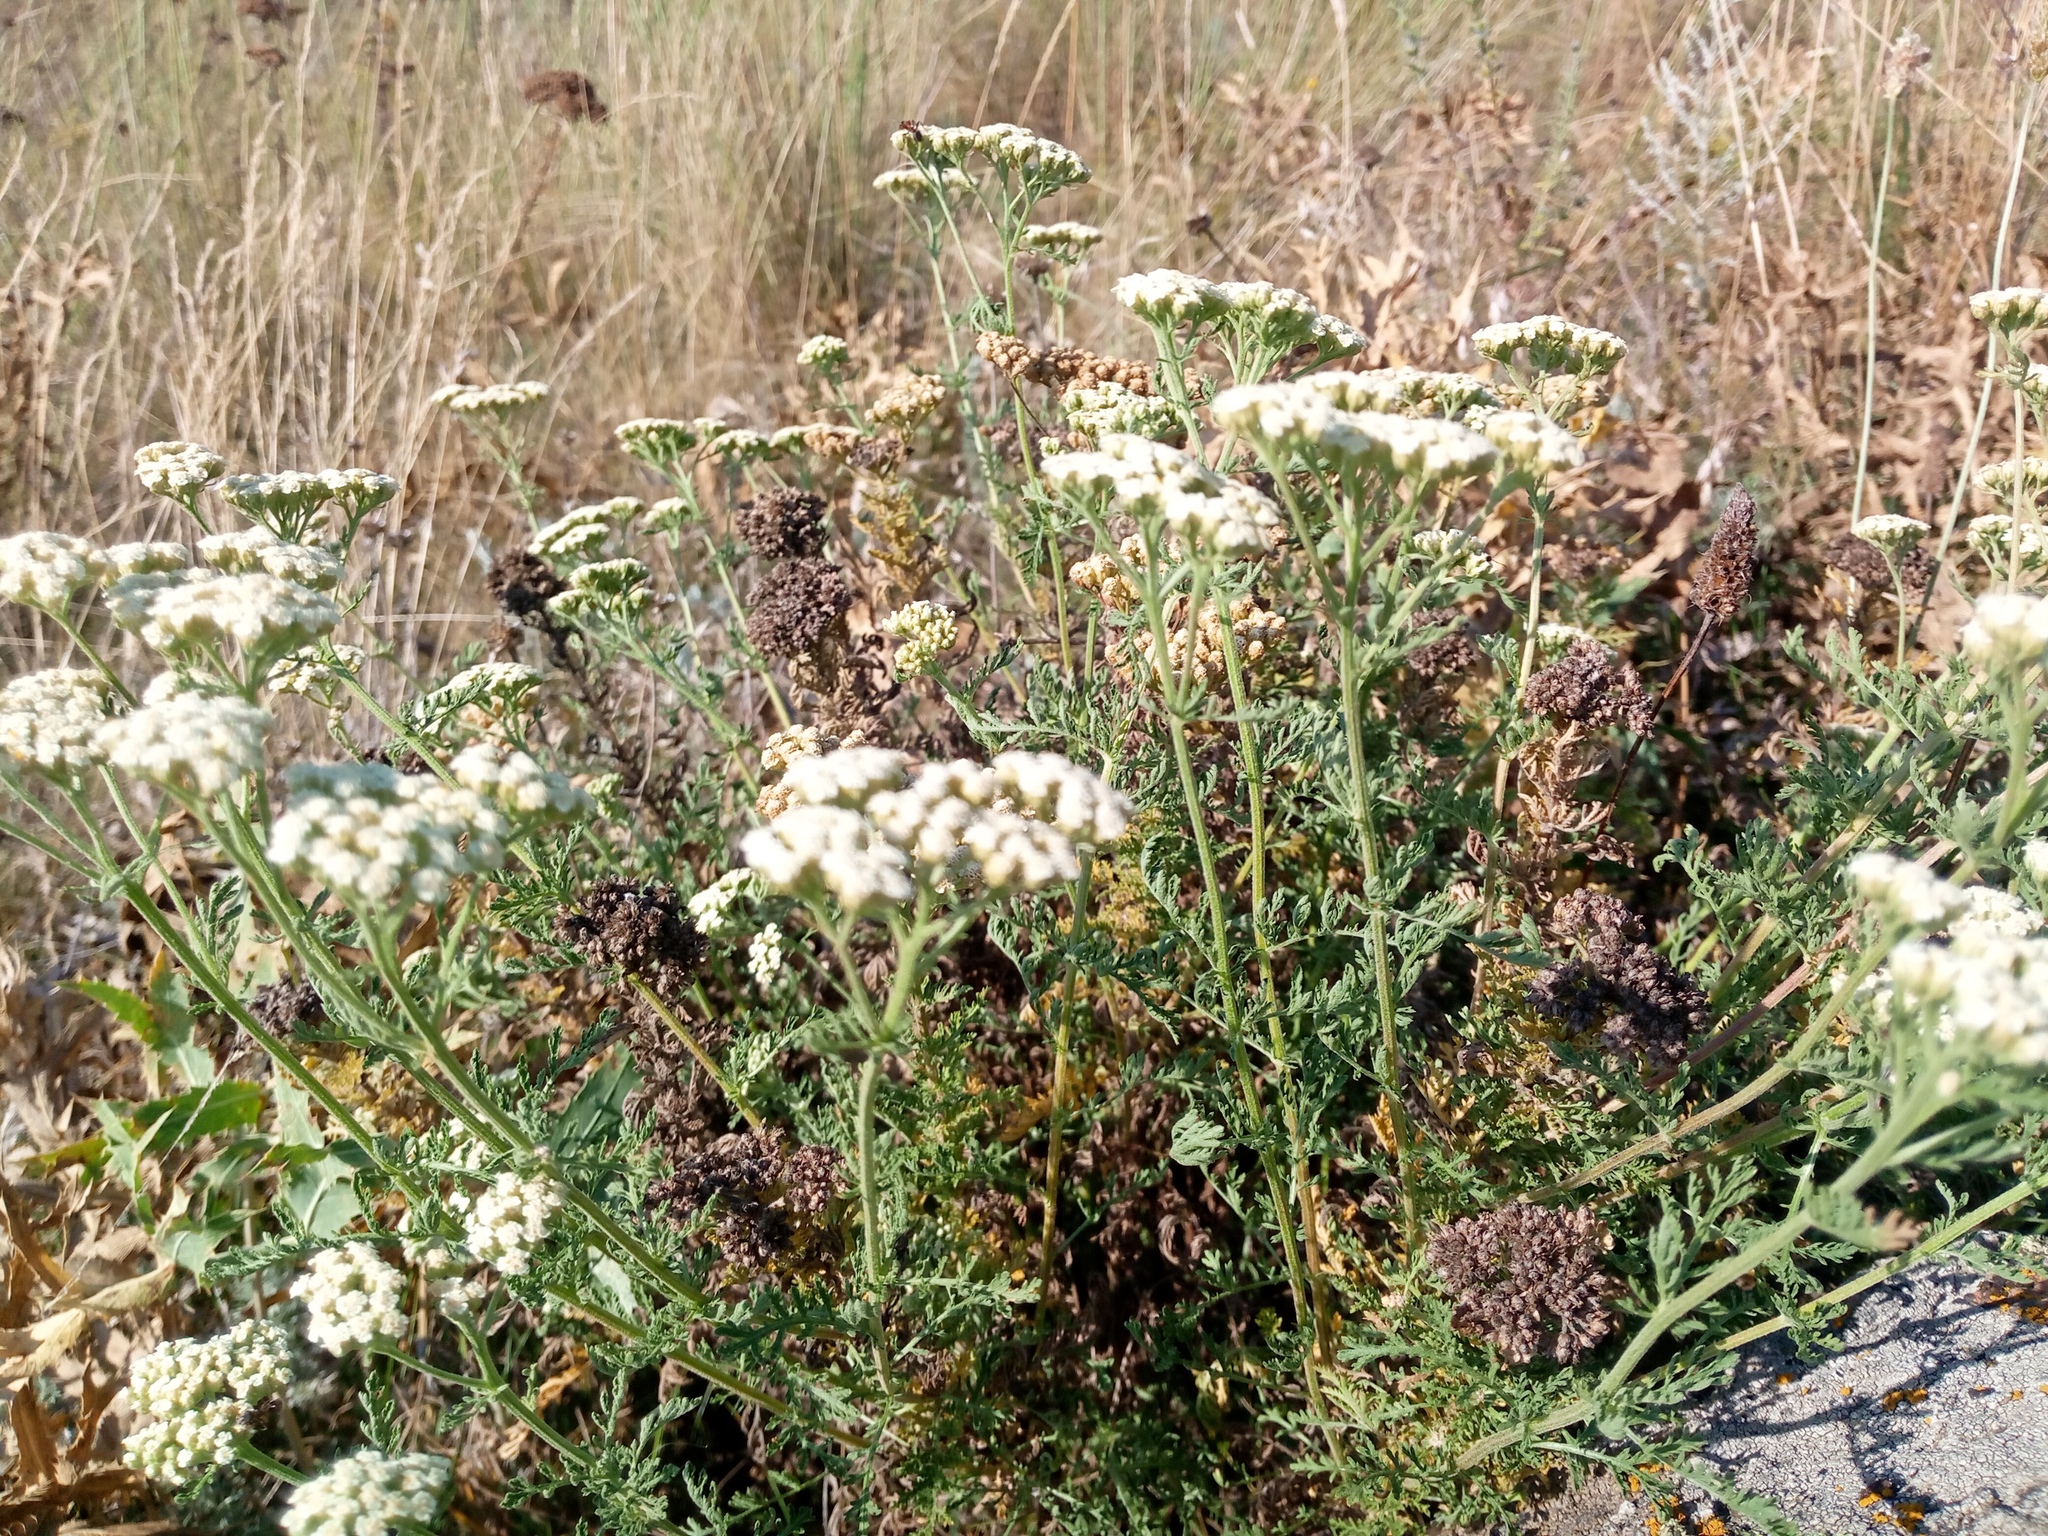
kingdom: Plantae
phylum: Tracheophyta
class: Magnoliopsida
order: Asterales
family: Asteraceae
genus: Achillea
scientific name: Achillea nobilis
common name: Noble yarrow
